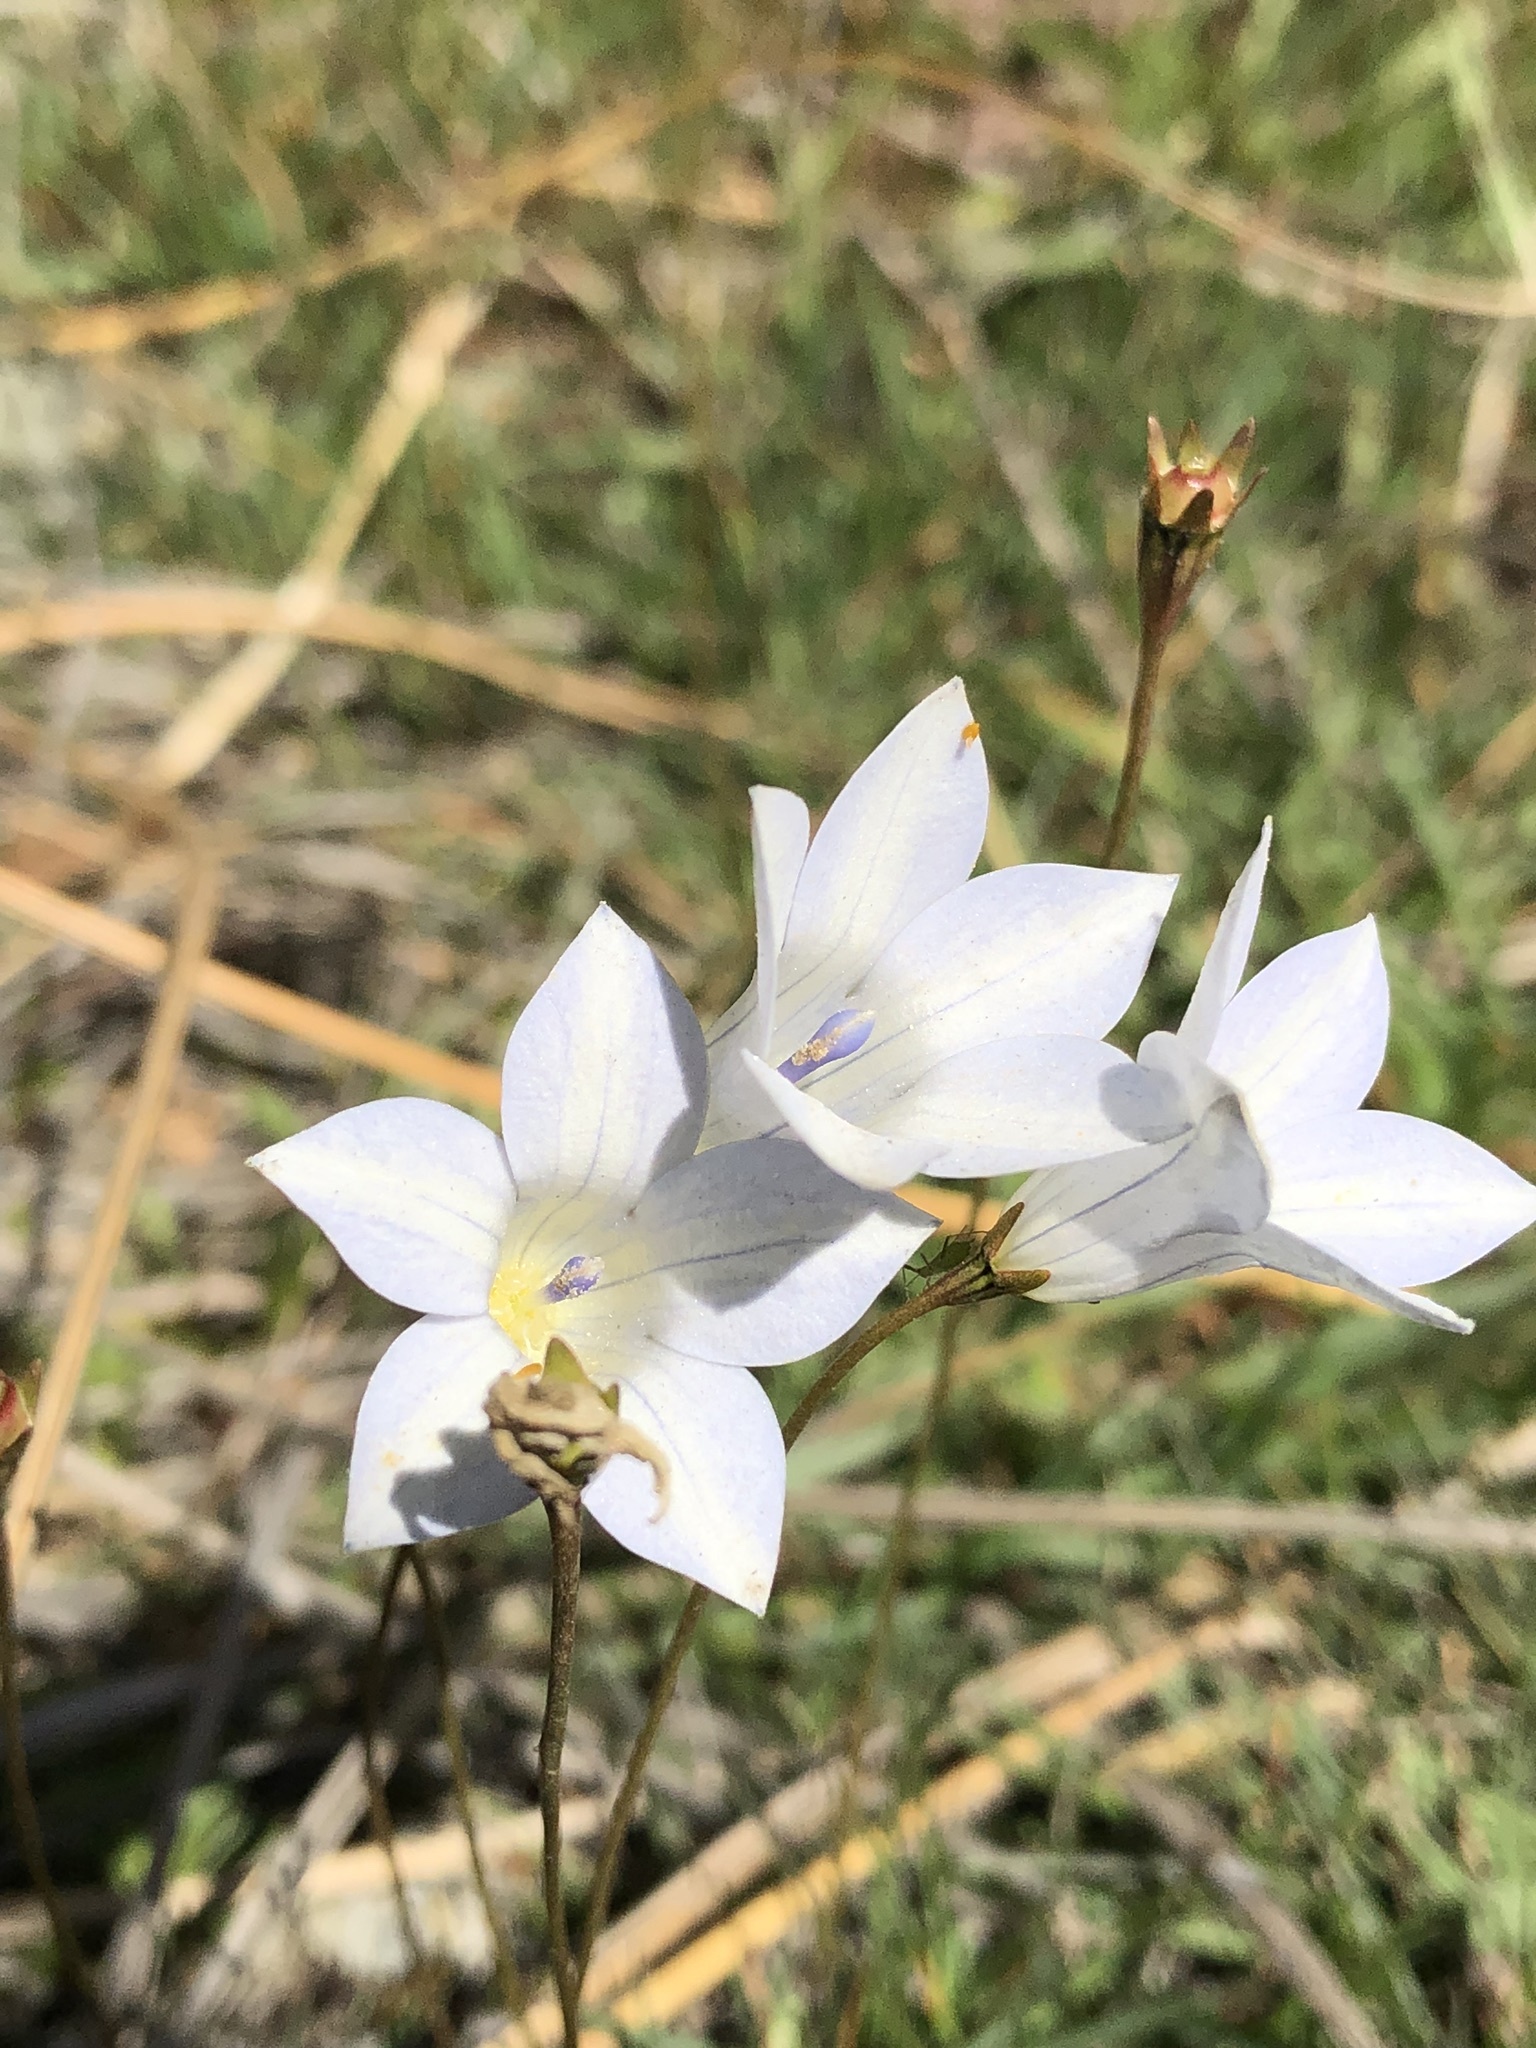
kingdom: Plantae
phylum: Tracheophyta
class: Magnoliopsida
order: Asterales
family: Campanulaceae
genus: Wahlenbergia
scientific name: Wahlenbergia albomarginata
